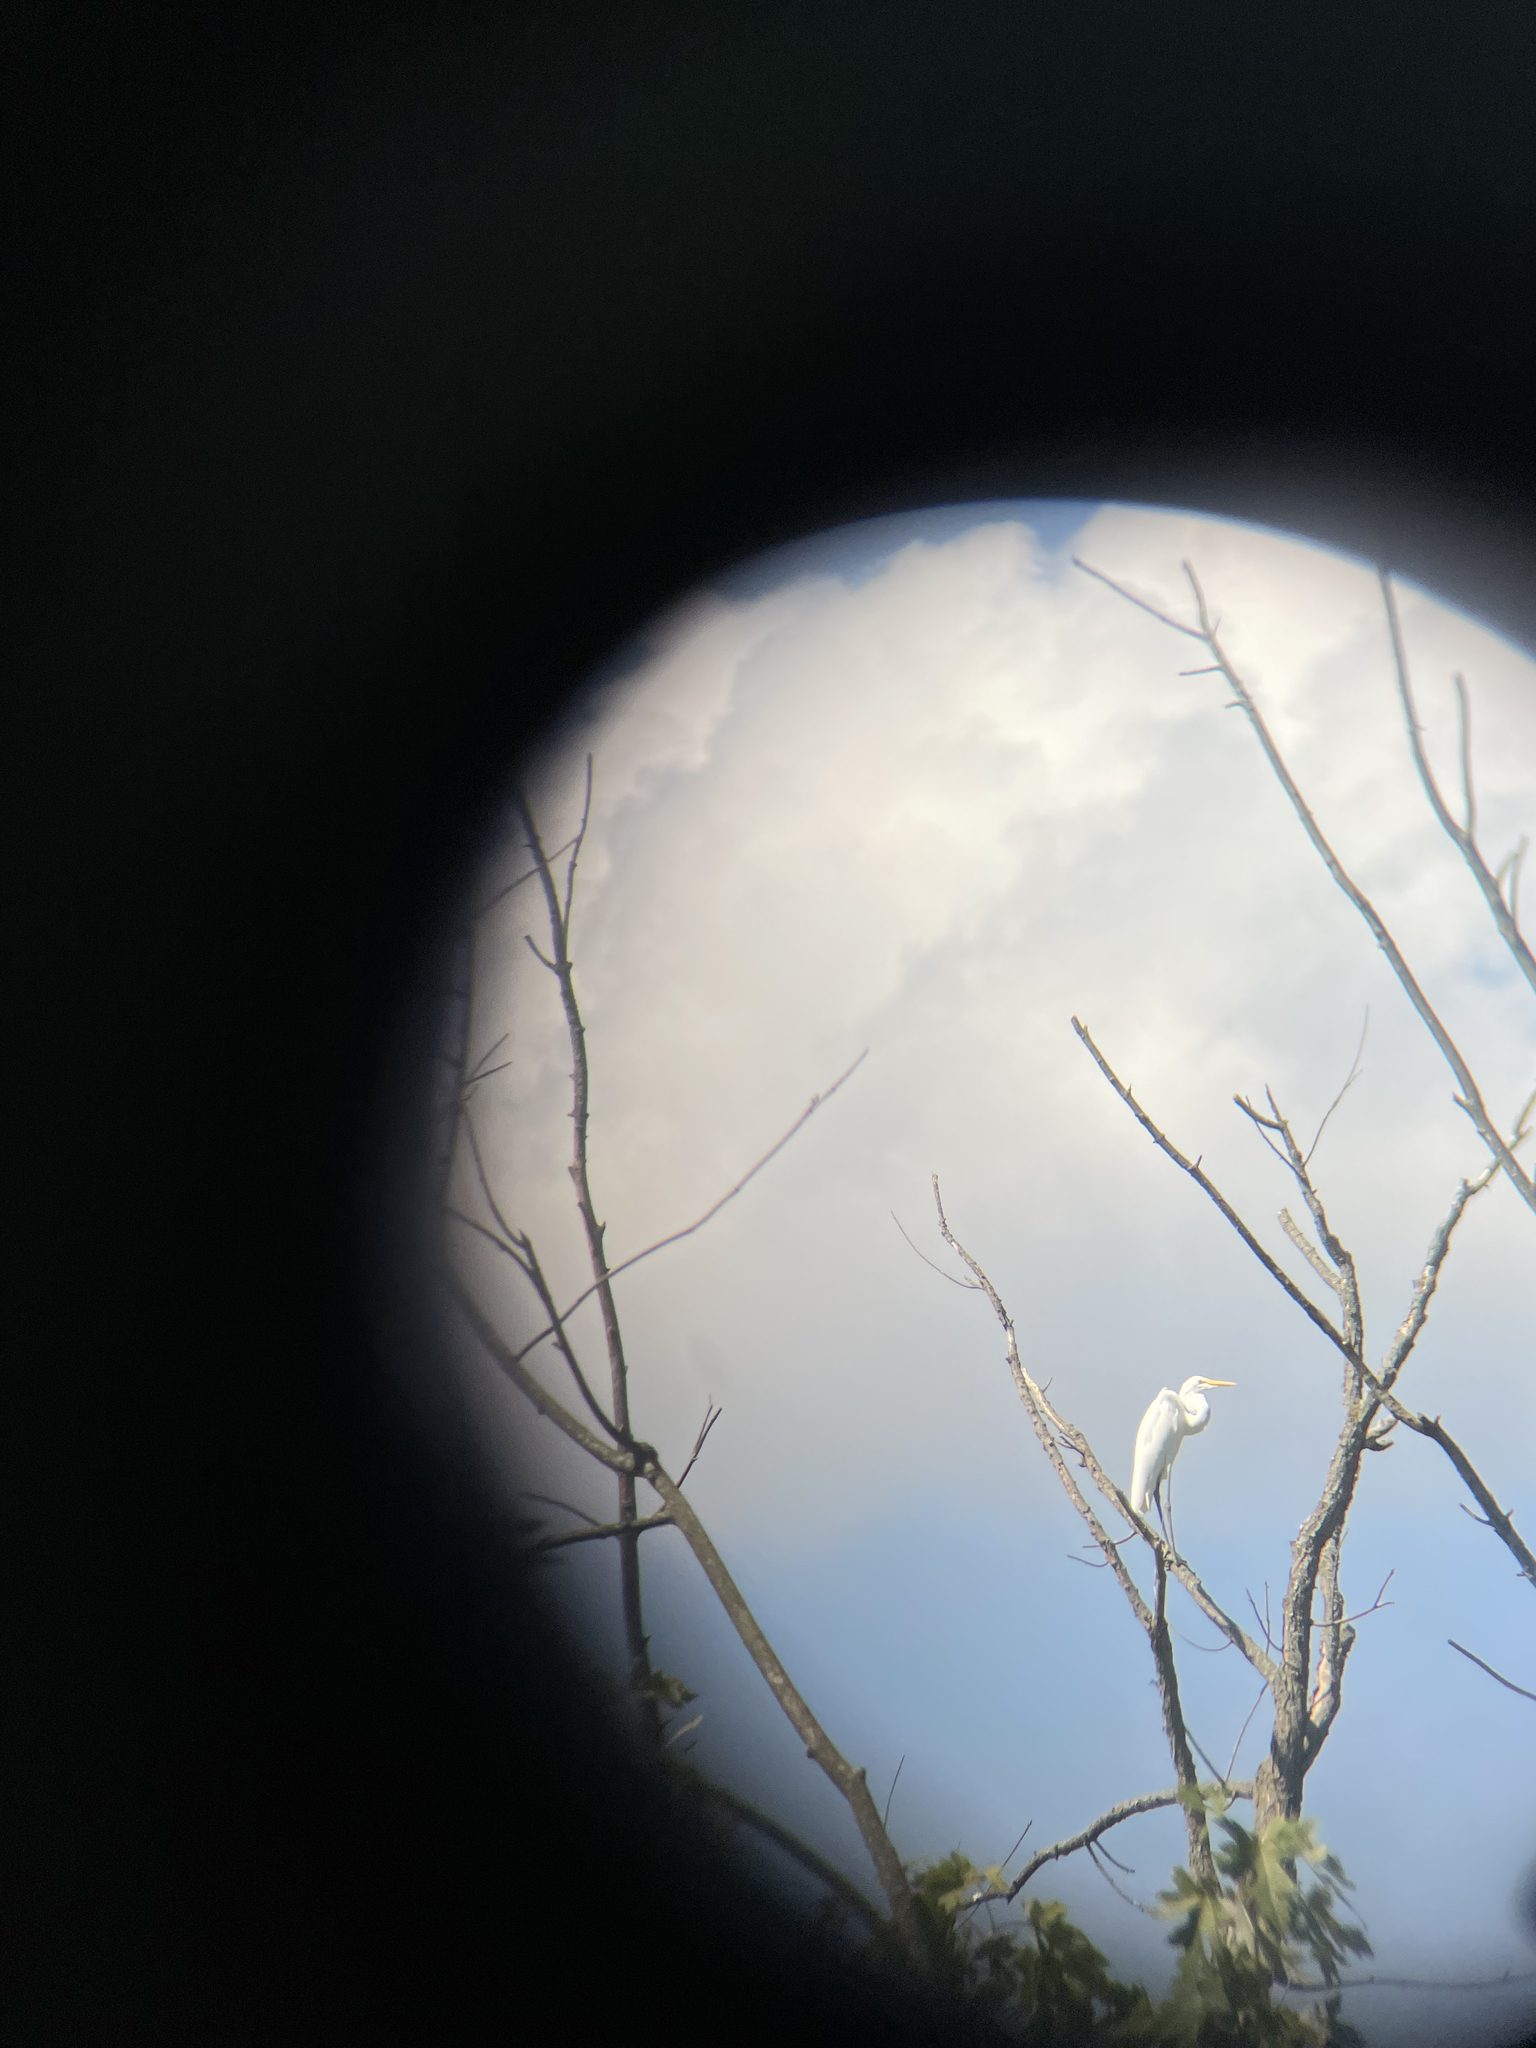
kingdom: Animalia
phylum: Chordata
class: Aves
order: Pelecaniformes
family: Ardeidae
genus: Ardea
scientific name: Ardea alba
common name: Great egret
